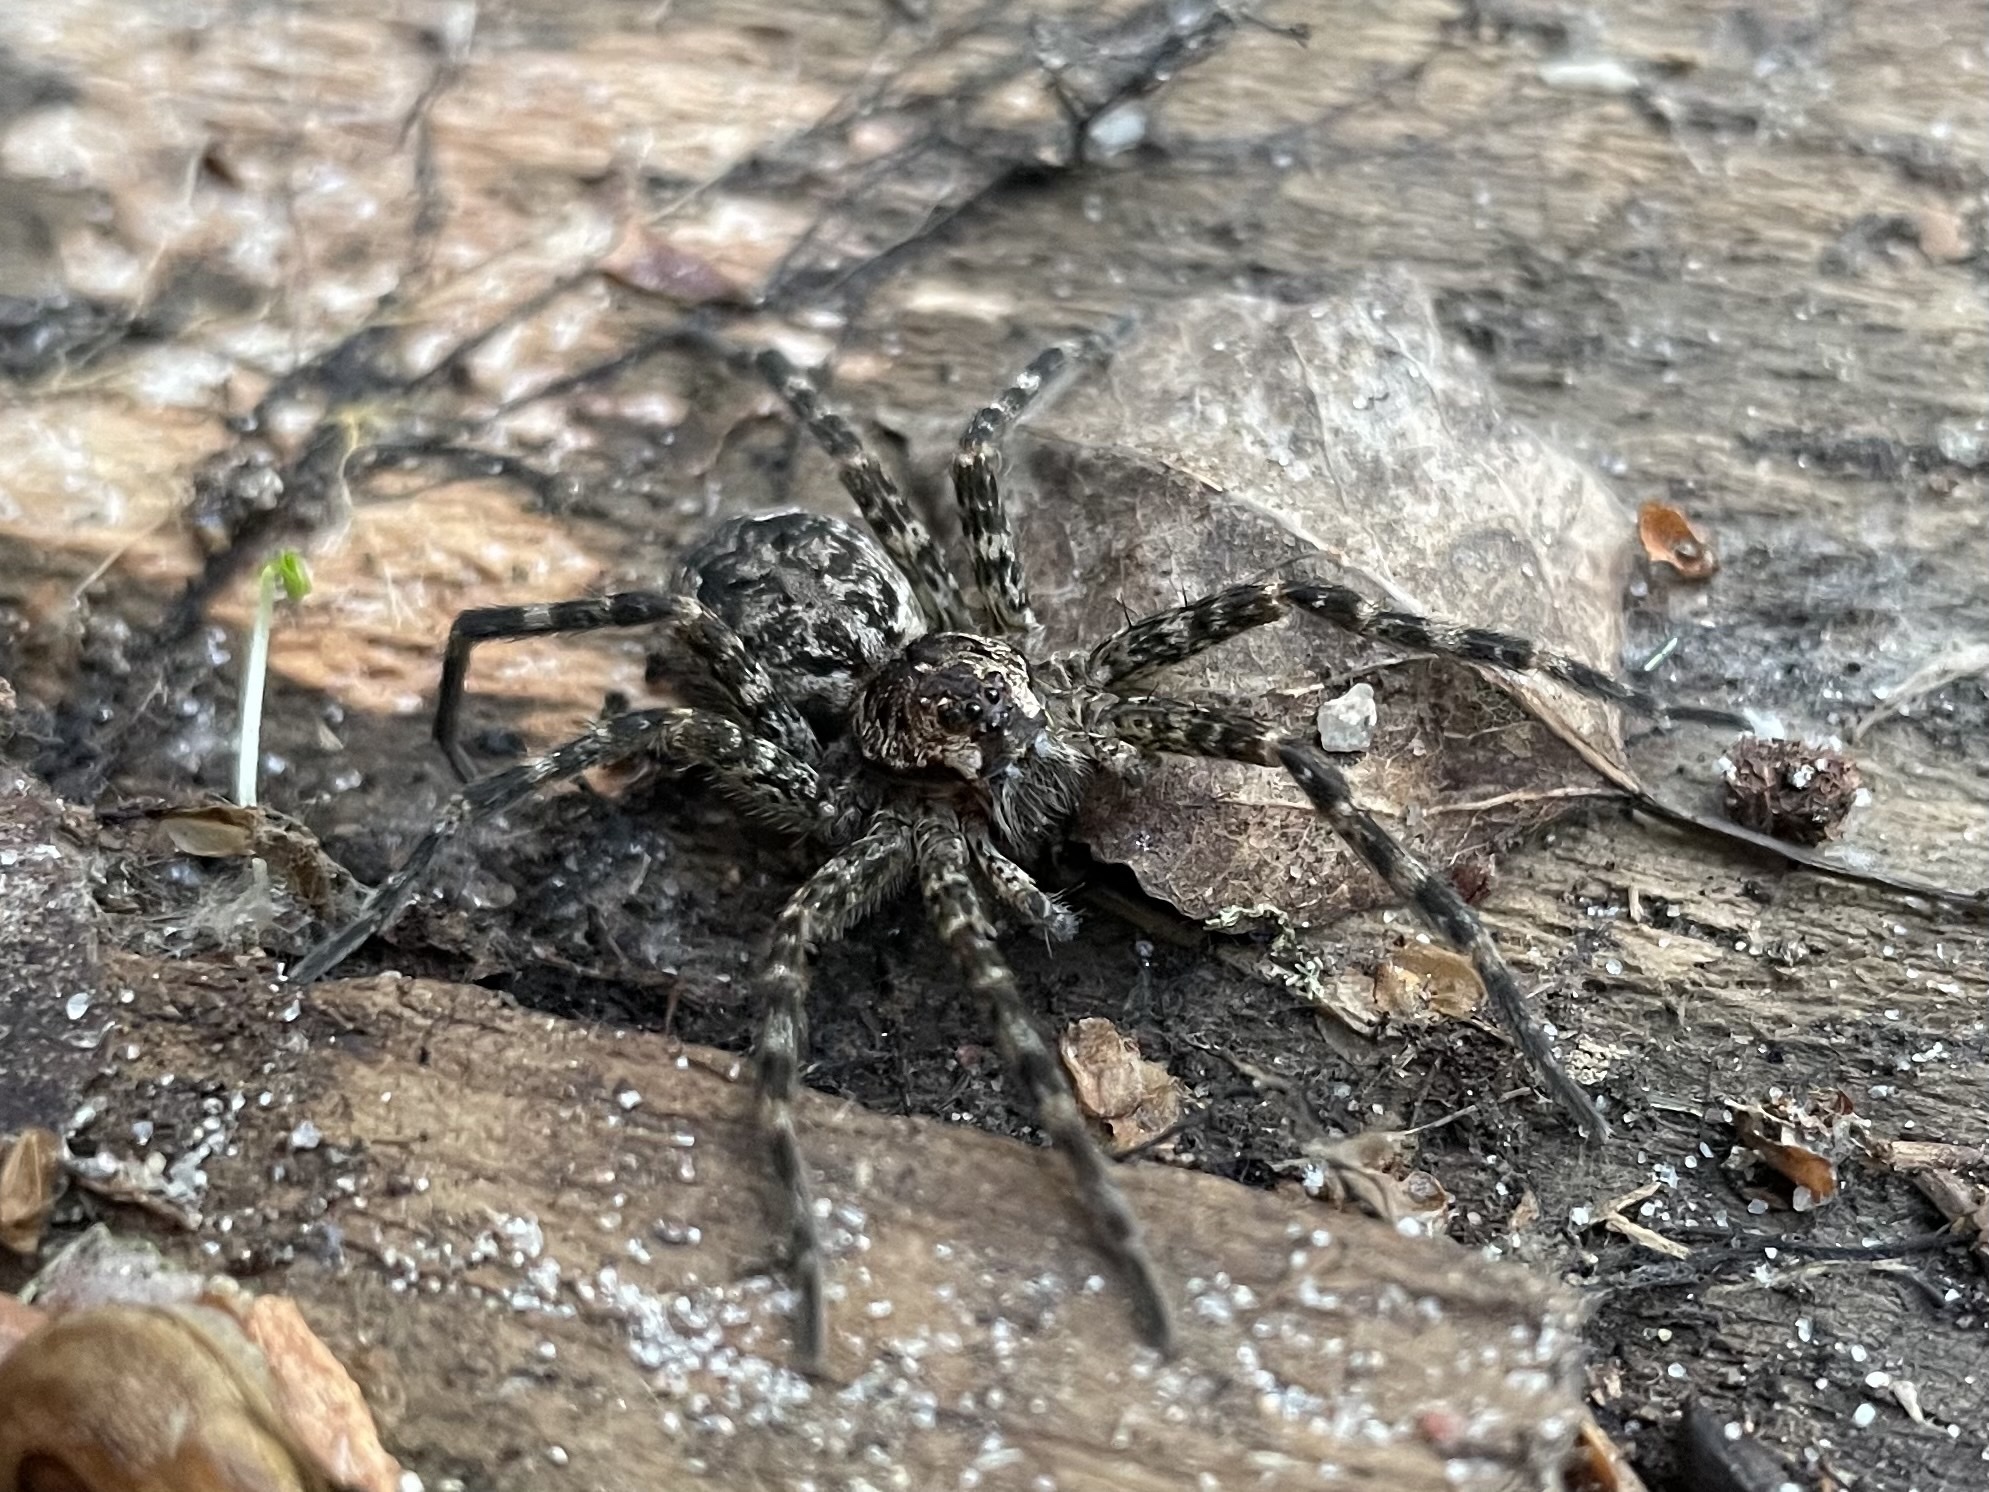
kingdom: Animalia
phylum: Arthropoda
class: Arachnida
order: Araneae
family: Pisauridae
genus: Dolomedes
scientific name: Dolomedes tenebrosus
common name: Dark fishing spider
